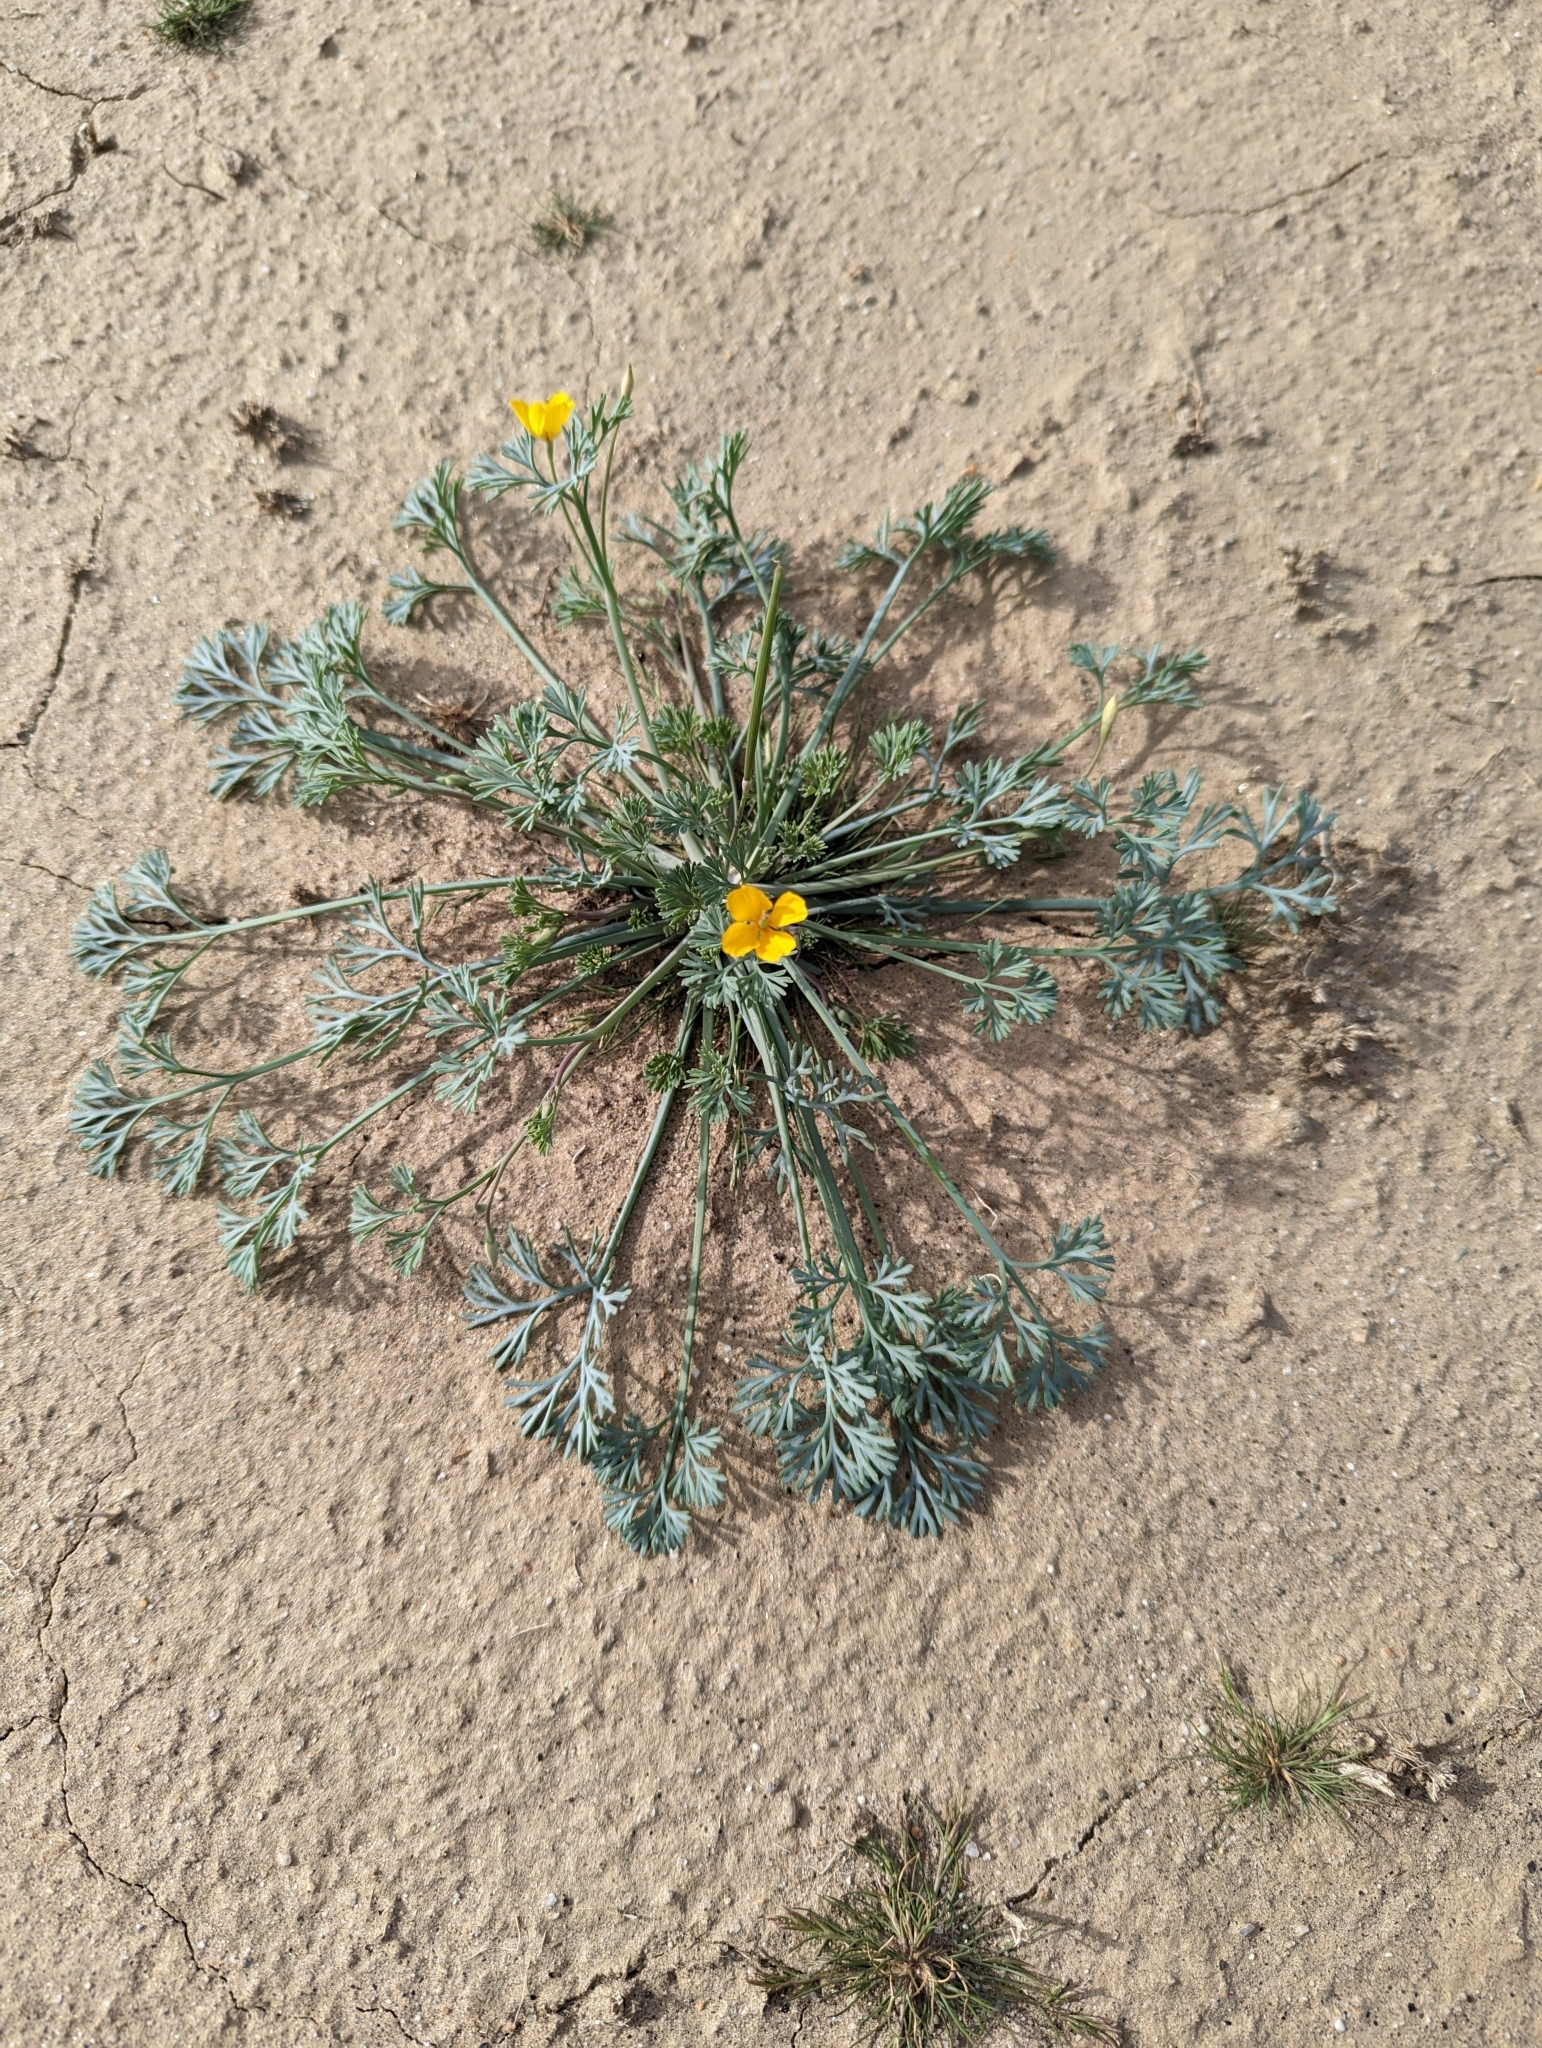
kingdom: Plantae
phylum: Tracheophyta
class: Magnoliopsida
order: Ranunculales
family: Papaveraceae
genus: Eschscholzia
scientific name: Eschscholzia minutiflora
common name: Small-flower california-poppy
